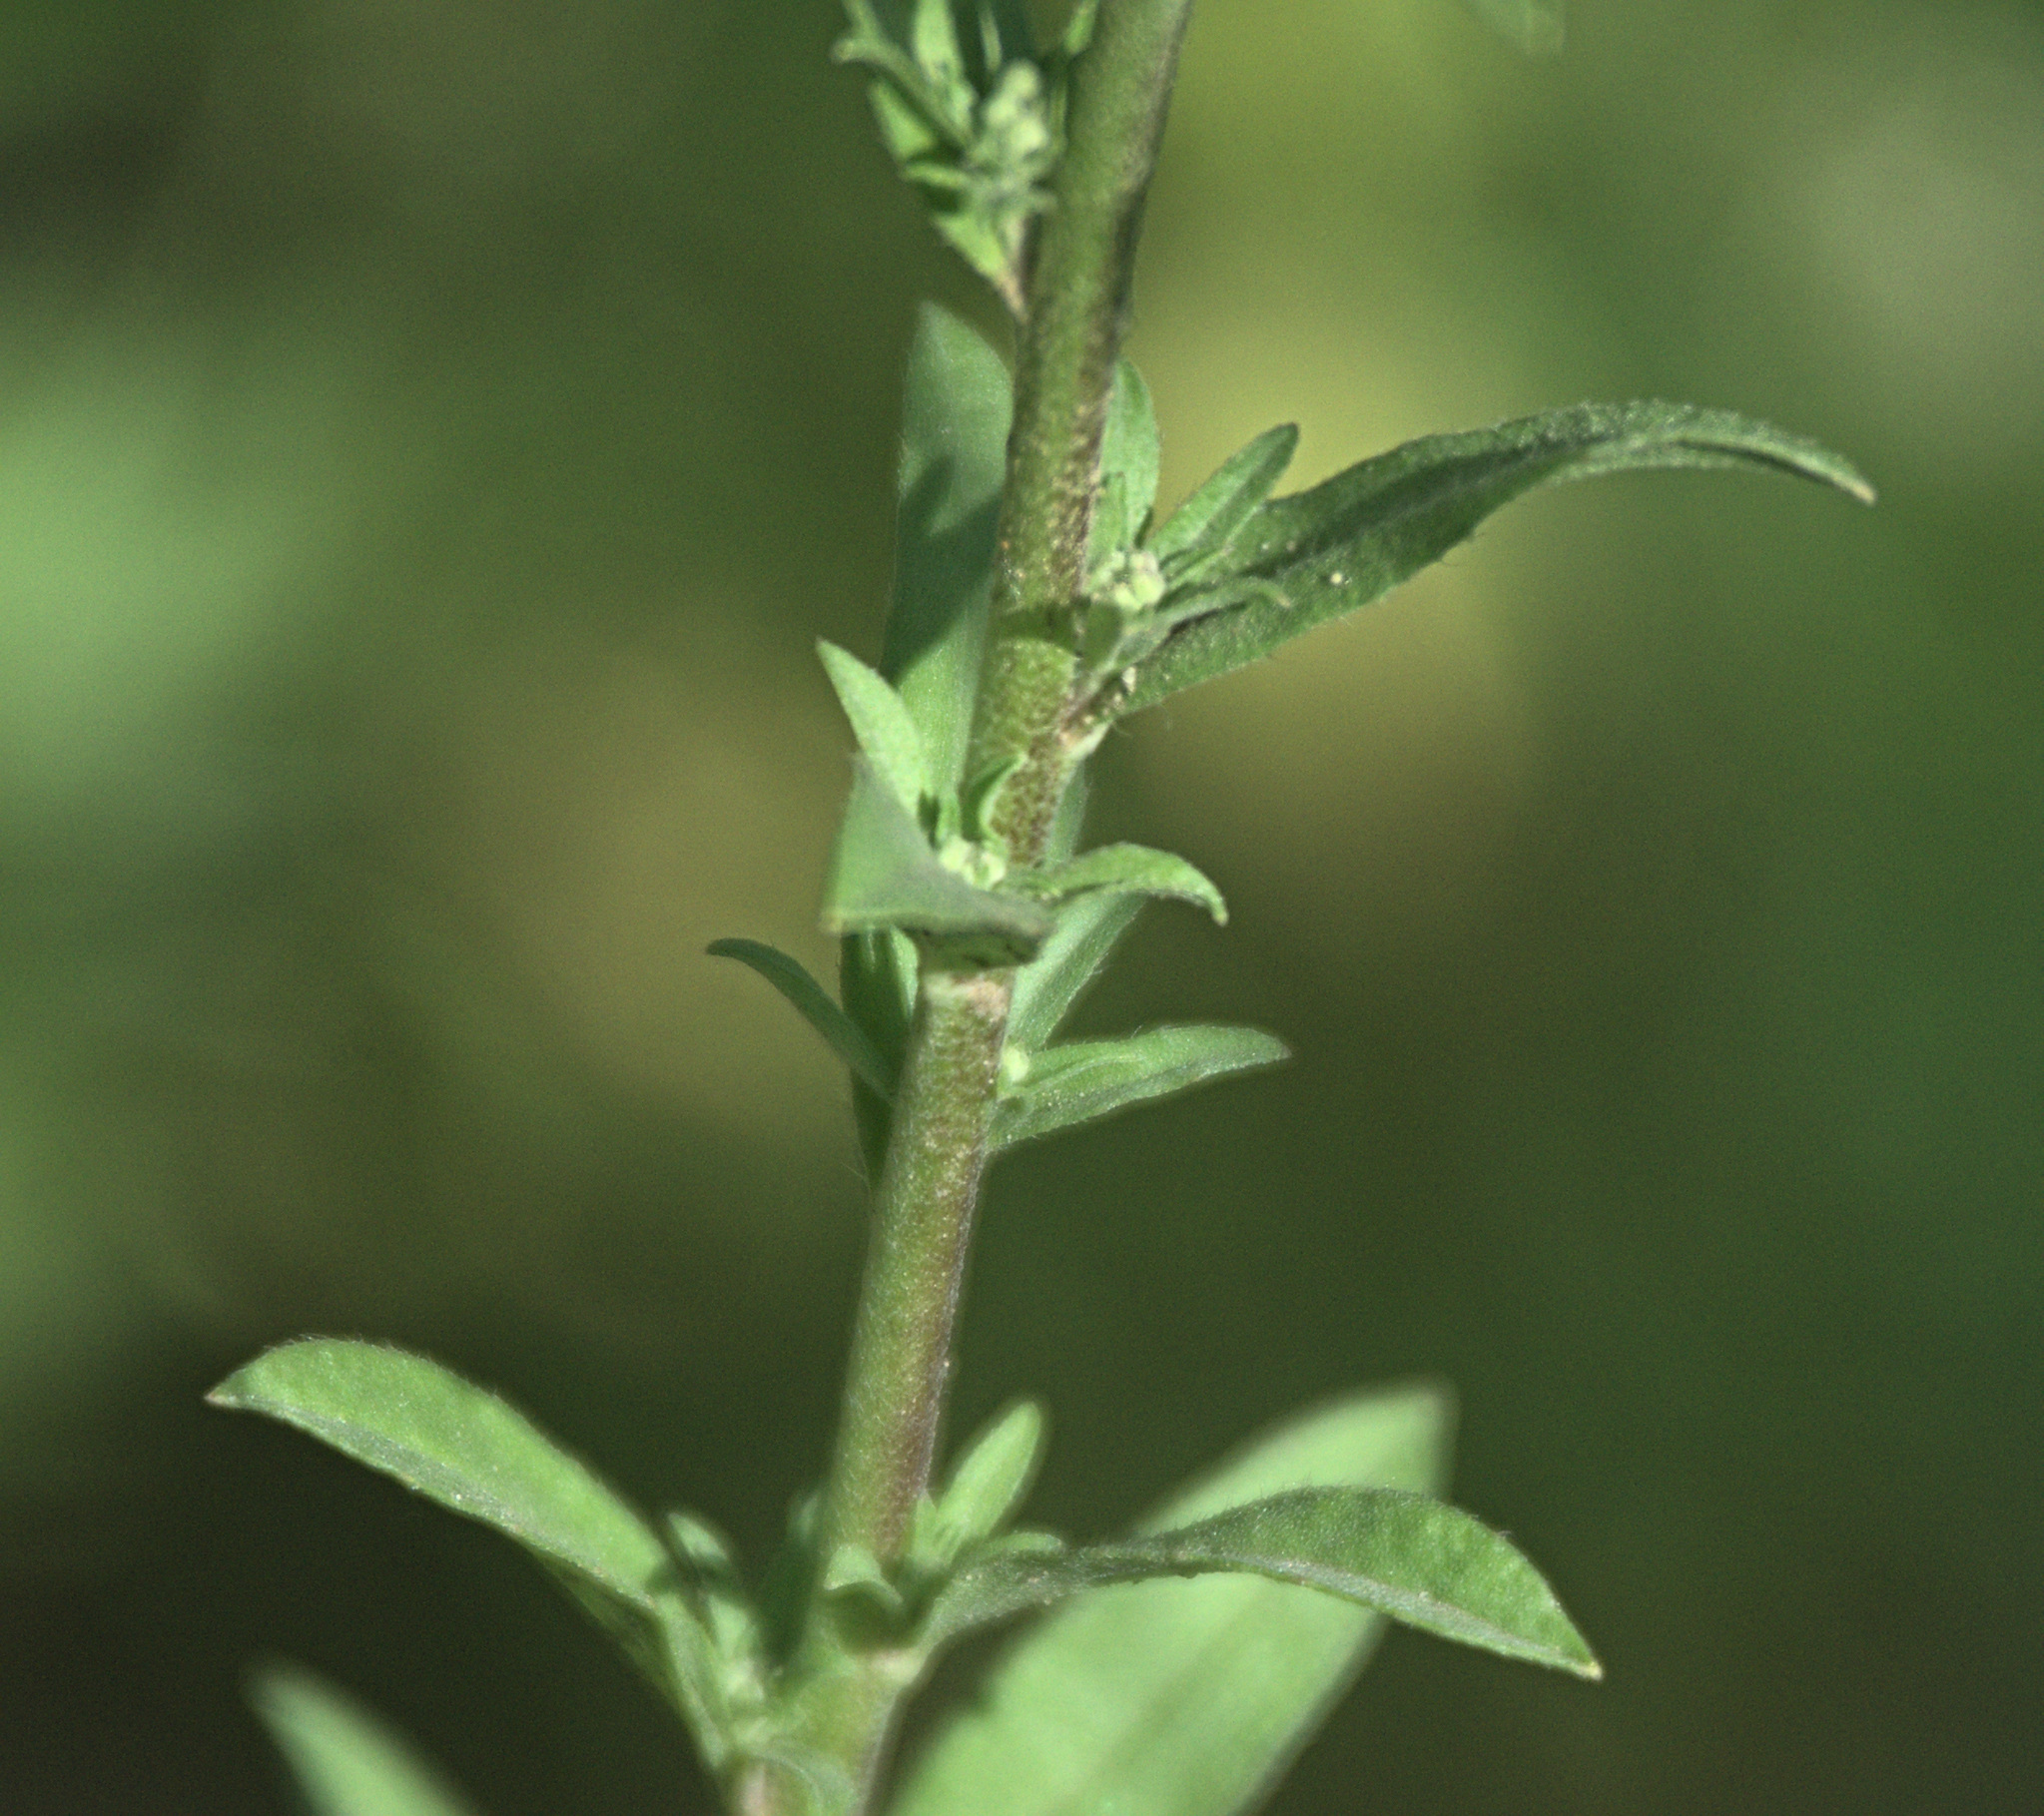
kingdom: Plantae
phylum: Tracheophyta
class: Magnoliopsida
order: Brassicales
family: Brassicaceae
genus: Berteroa
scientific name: Berteroa incana
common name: Hoary alison
